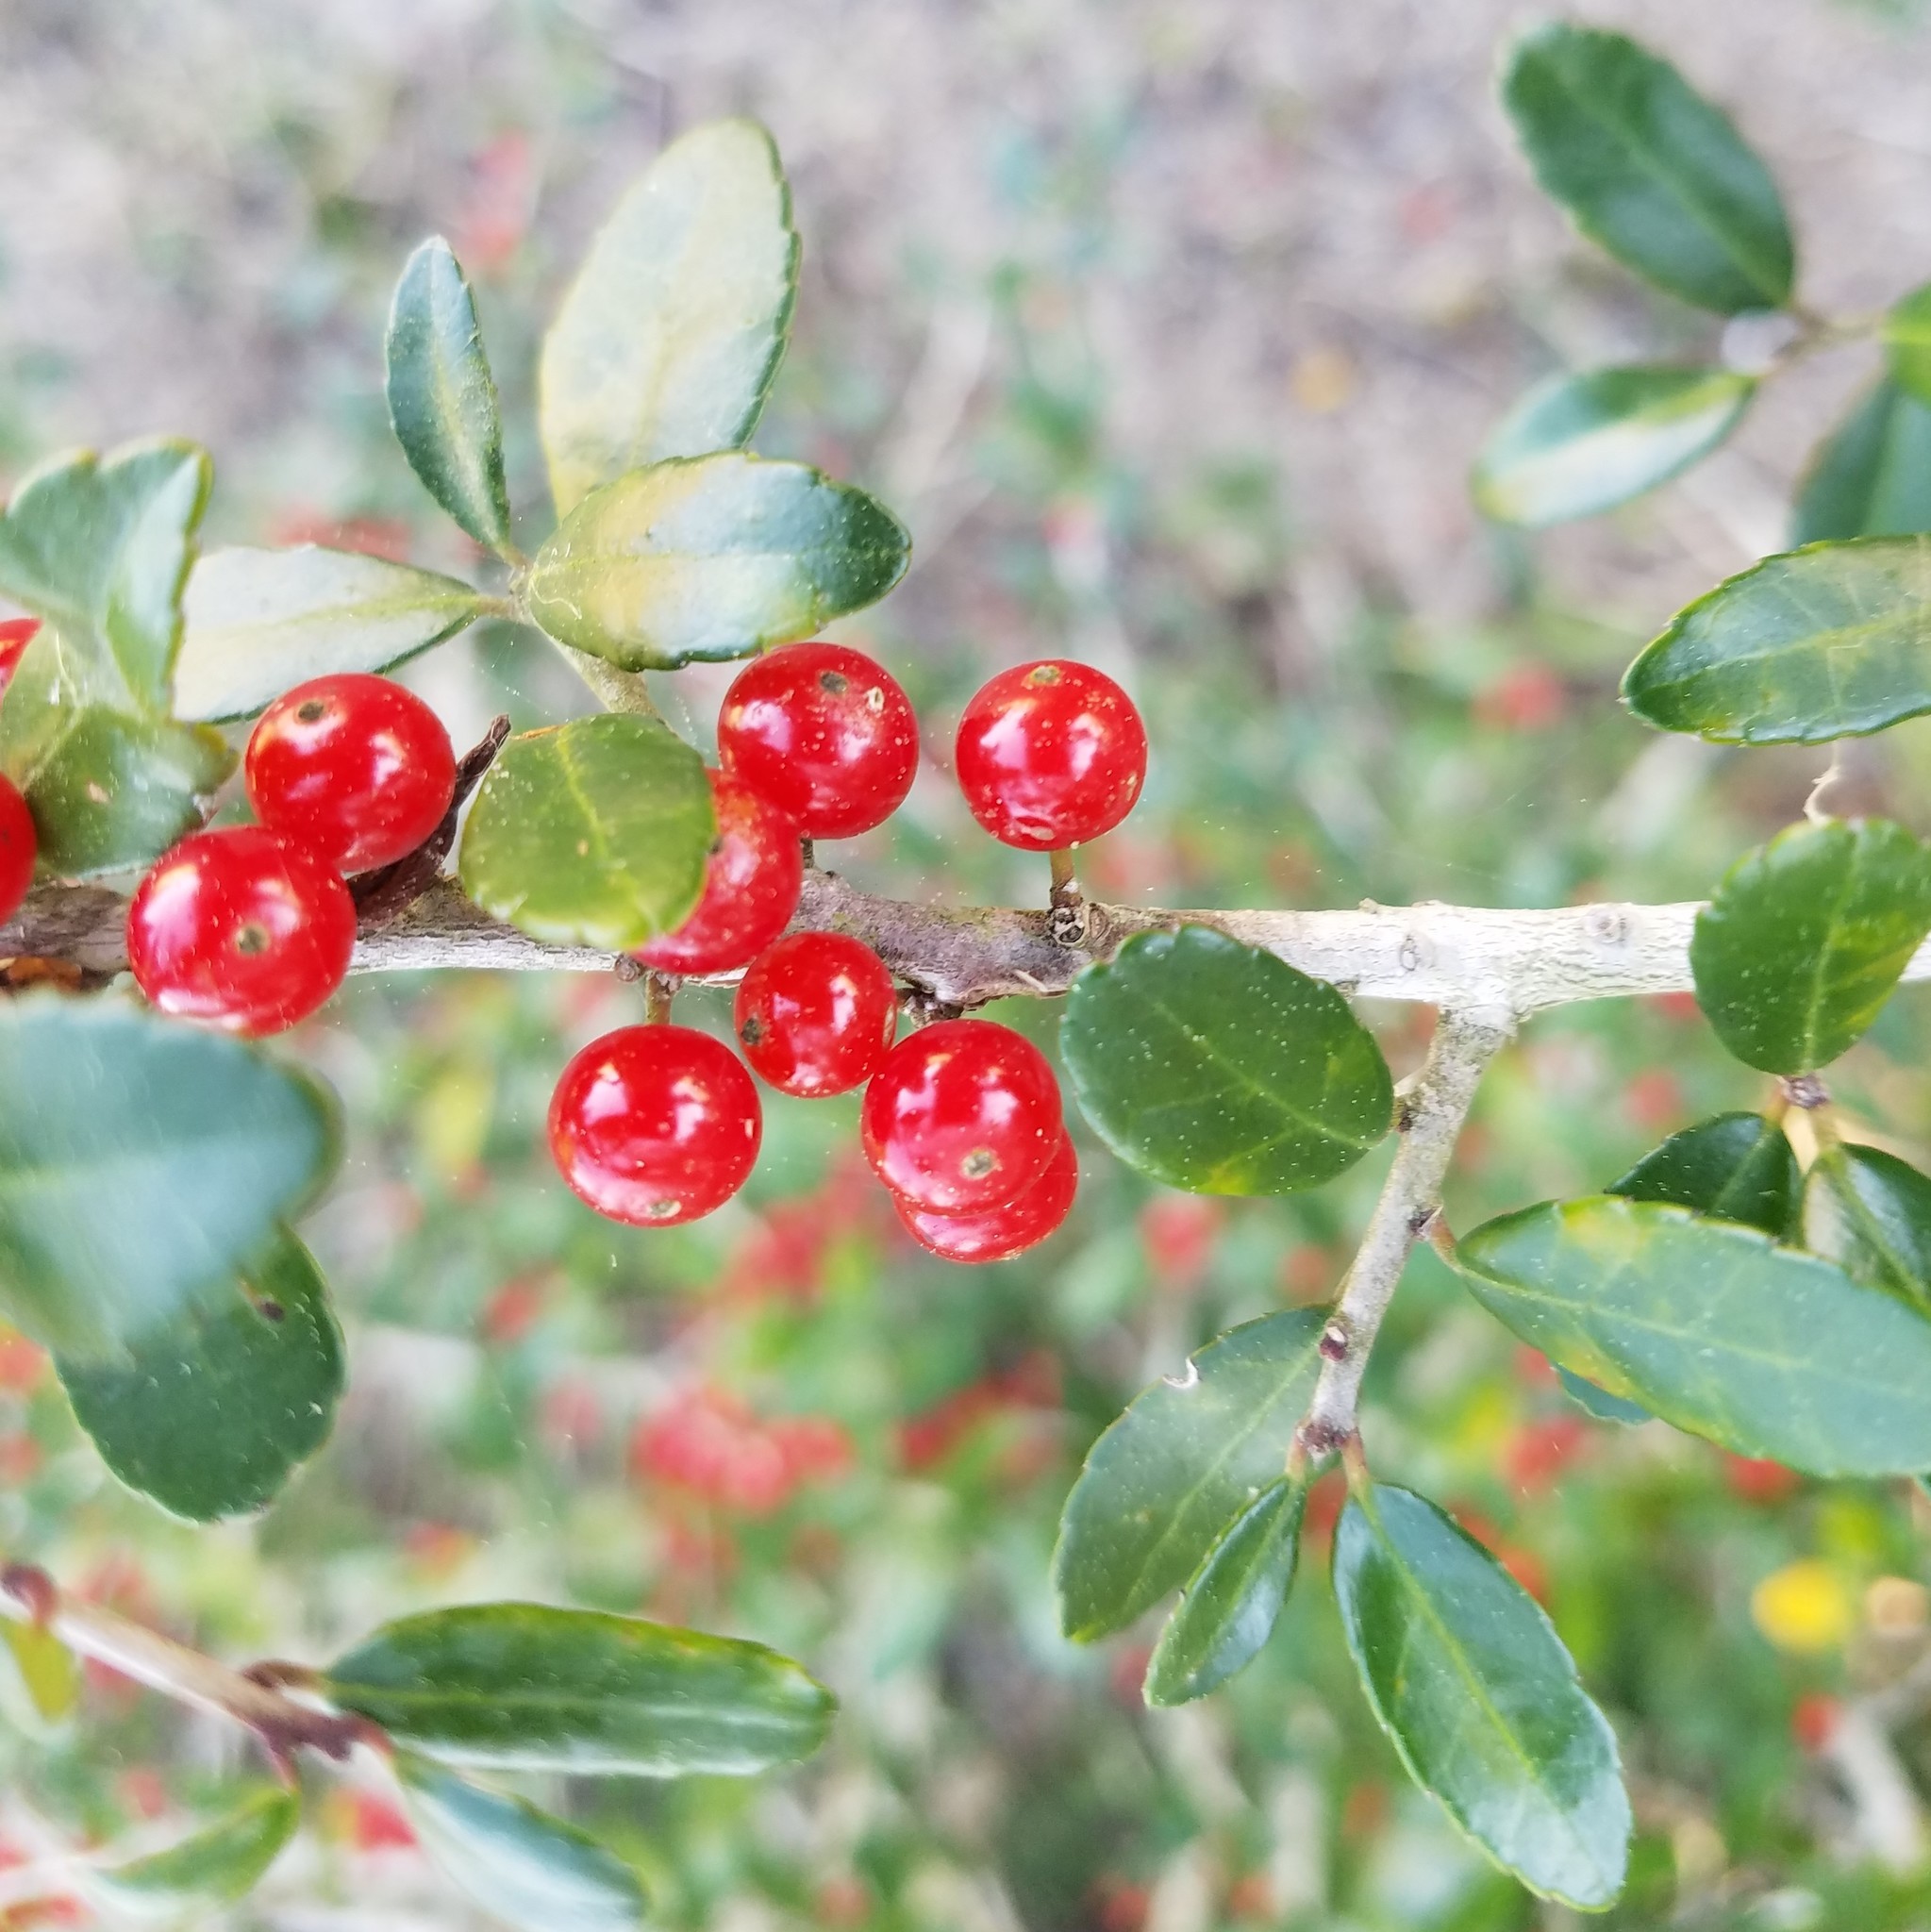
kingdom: Plantae
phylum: Tracheophyta
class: Magnoliopsida
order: Aquifoliales
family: Aquifoliaceae
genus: Ilex
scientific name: Ilex vomitoria
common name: Yaupon holly
